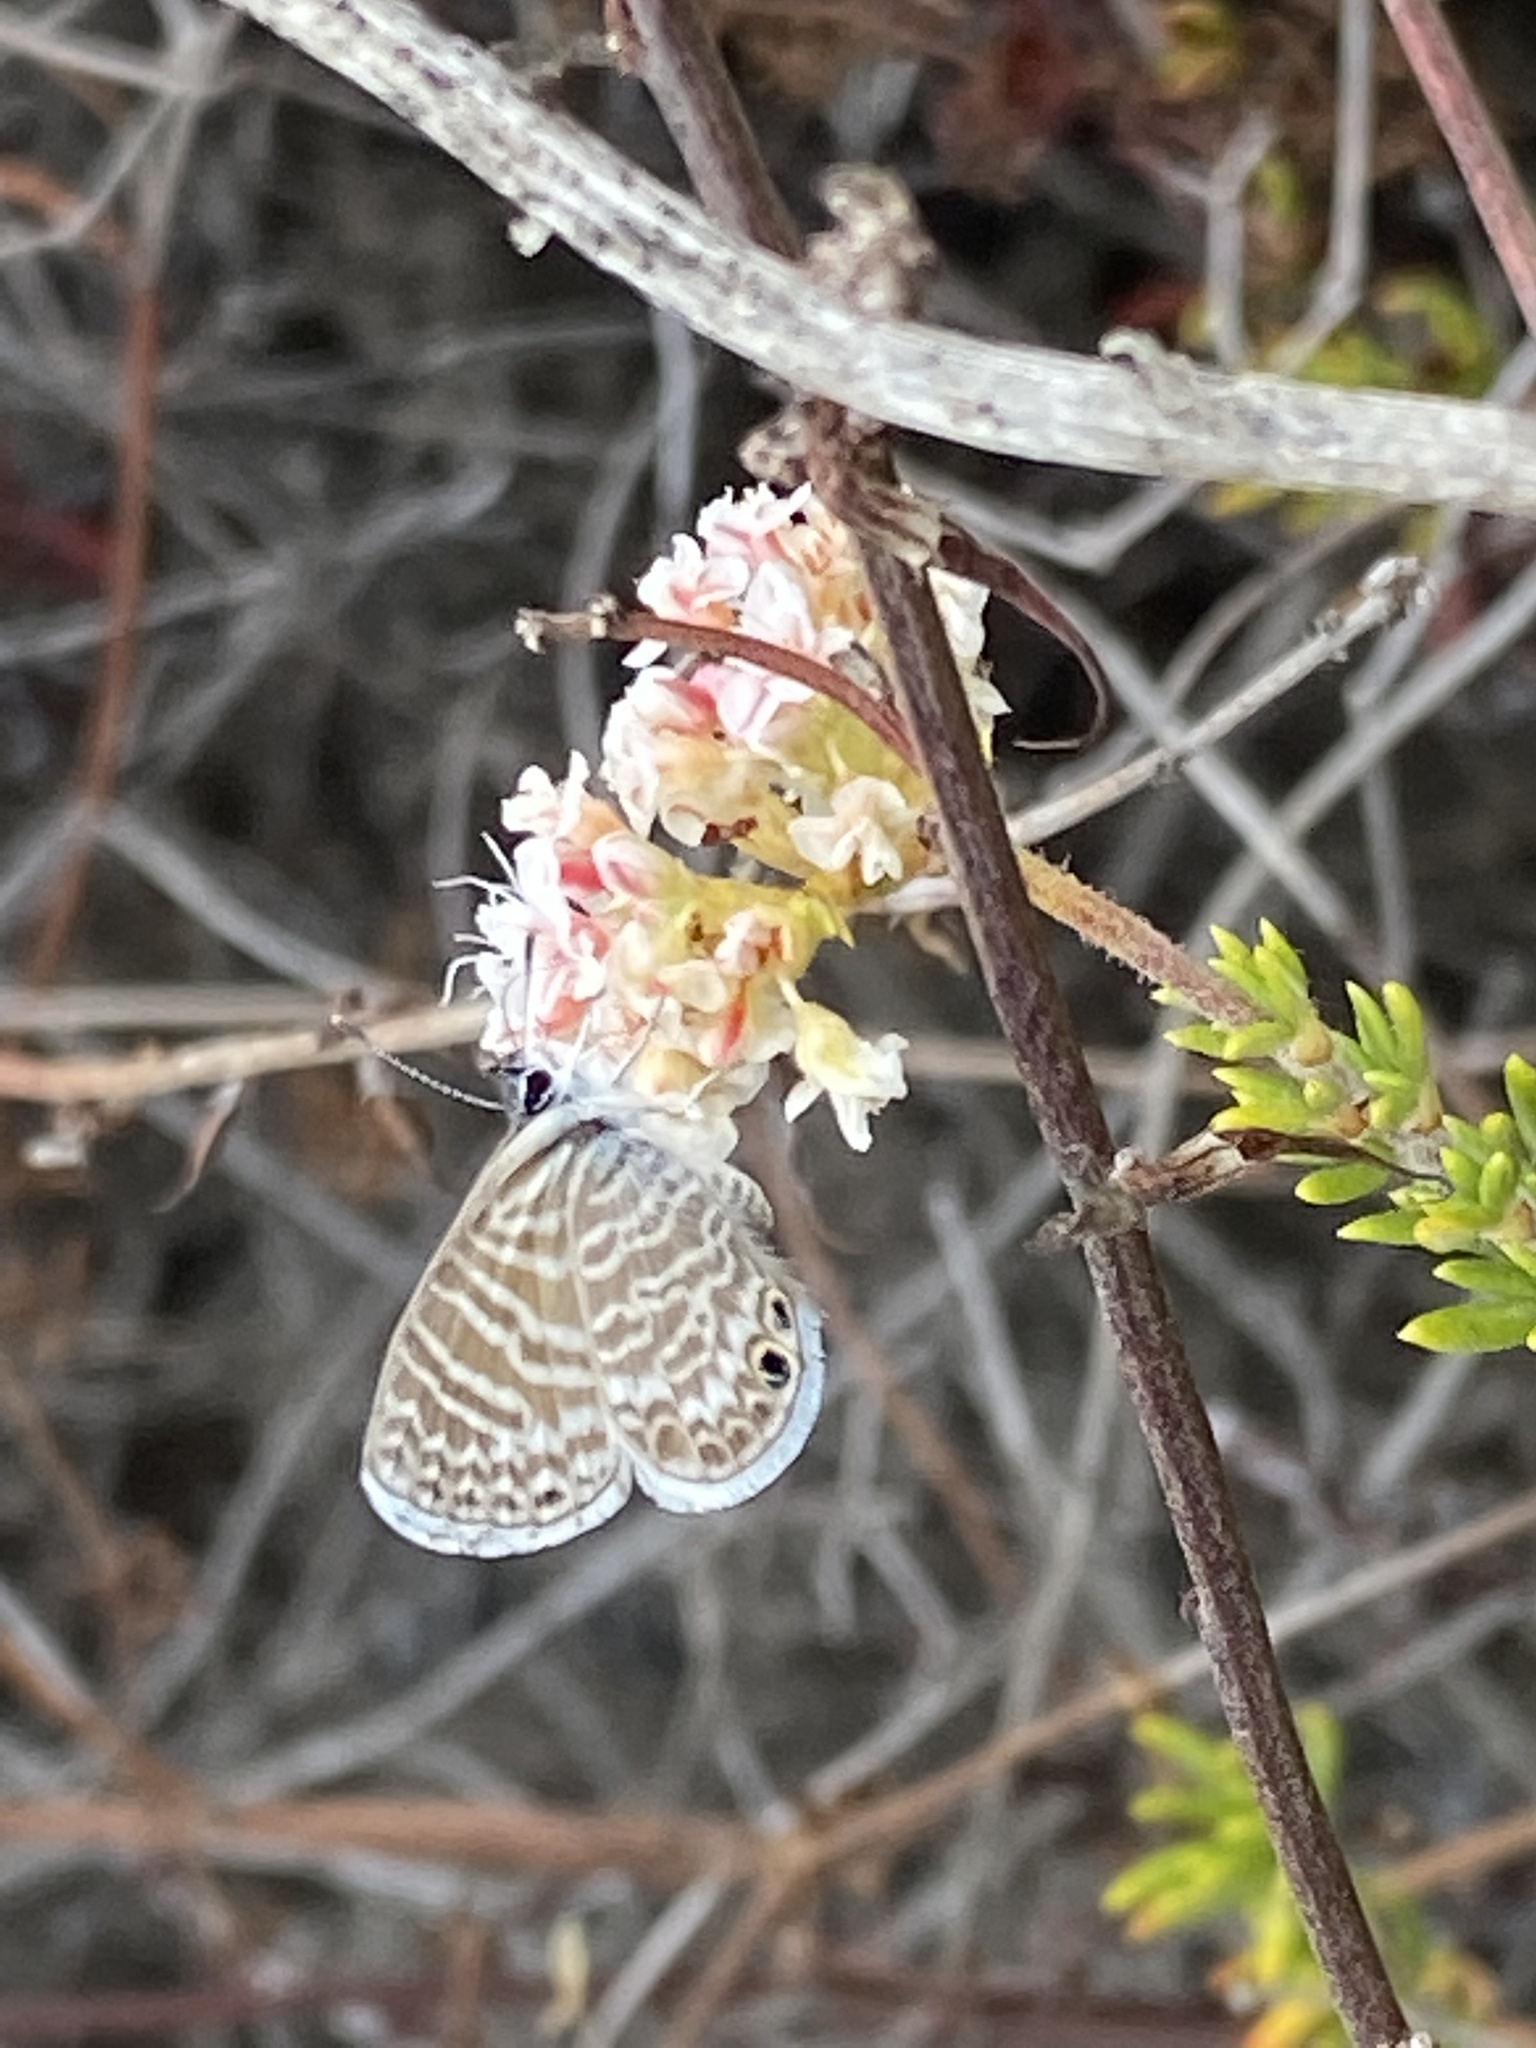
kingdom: Animalia
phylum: Arthropoda
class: Insecta
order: Lepidoptera
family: Lycaenidae
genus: Leptotes
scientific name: Leptotes marina
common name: Marine blue
